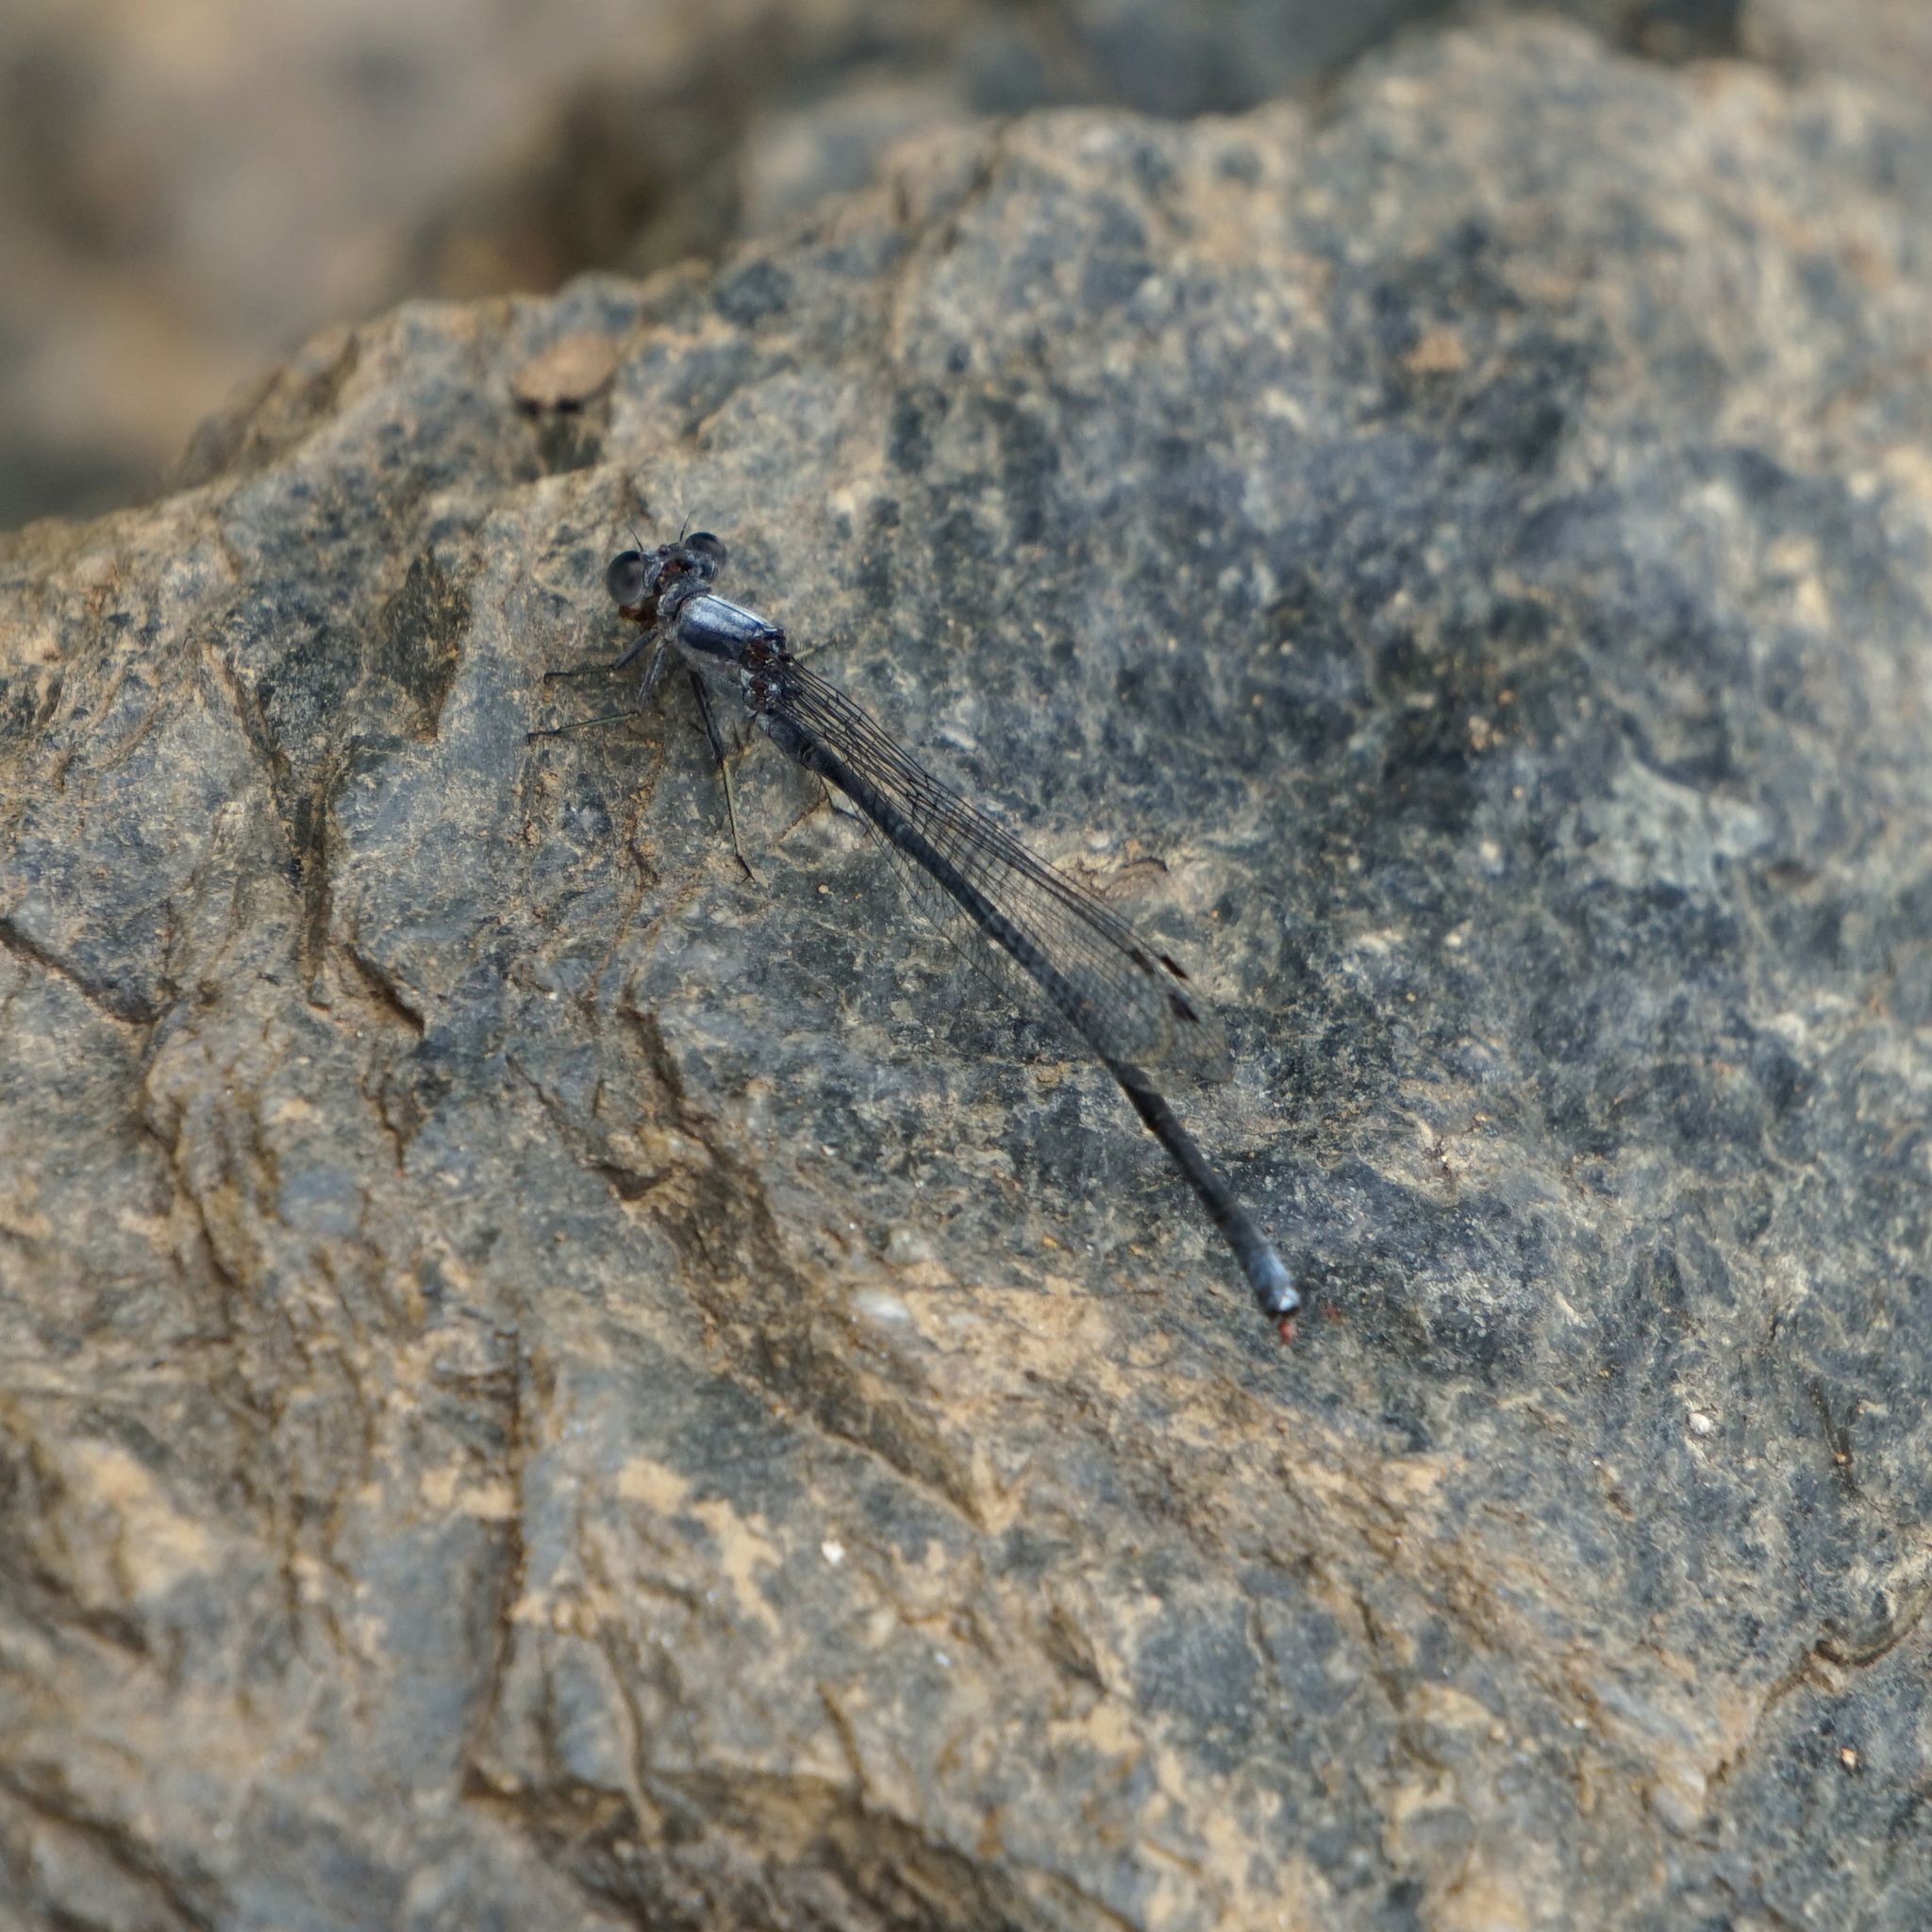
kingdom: Animalia
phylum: Arthropoda
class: Insecta
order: Odonata
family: Coenagrionidae
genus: Argia
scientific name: Argia moesta
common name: Powdered dancer
